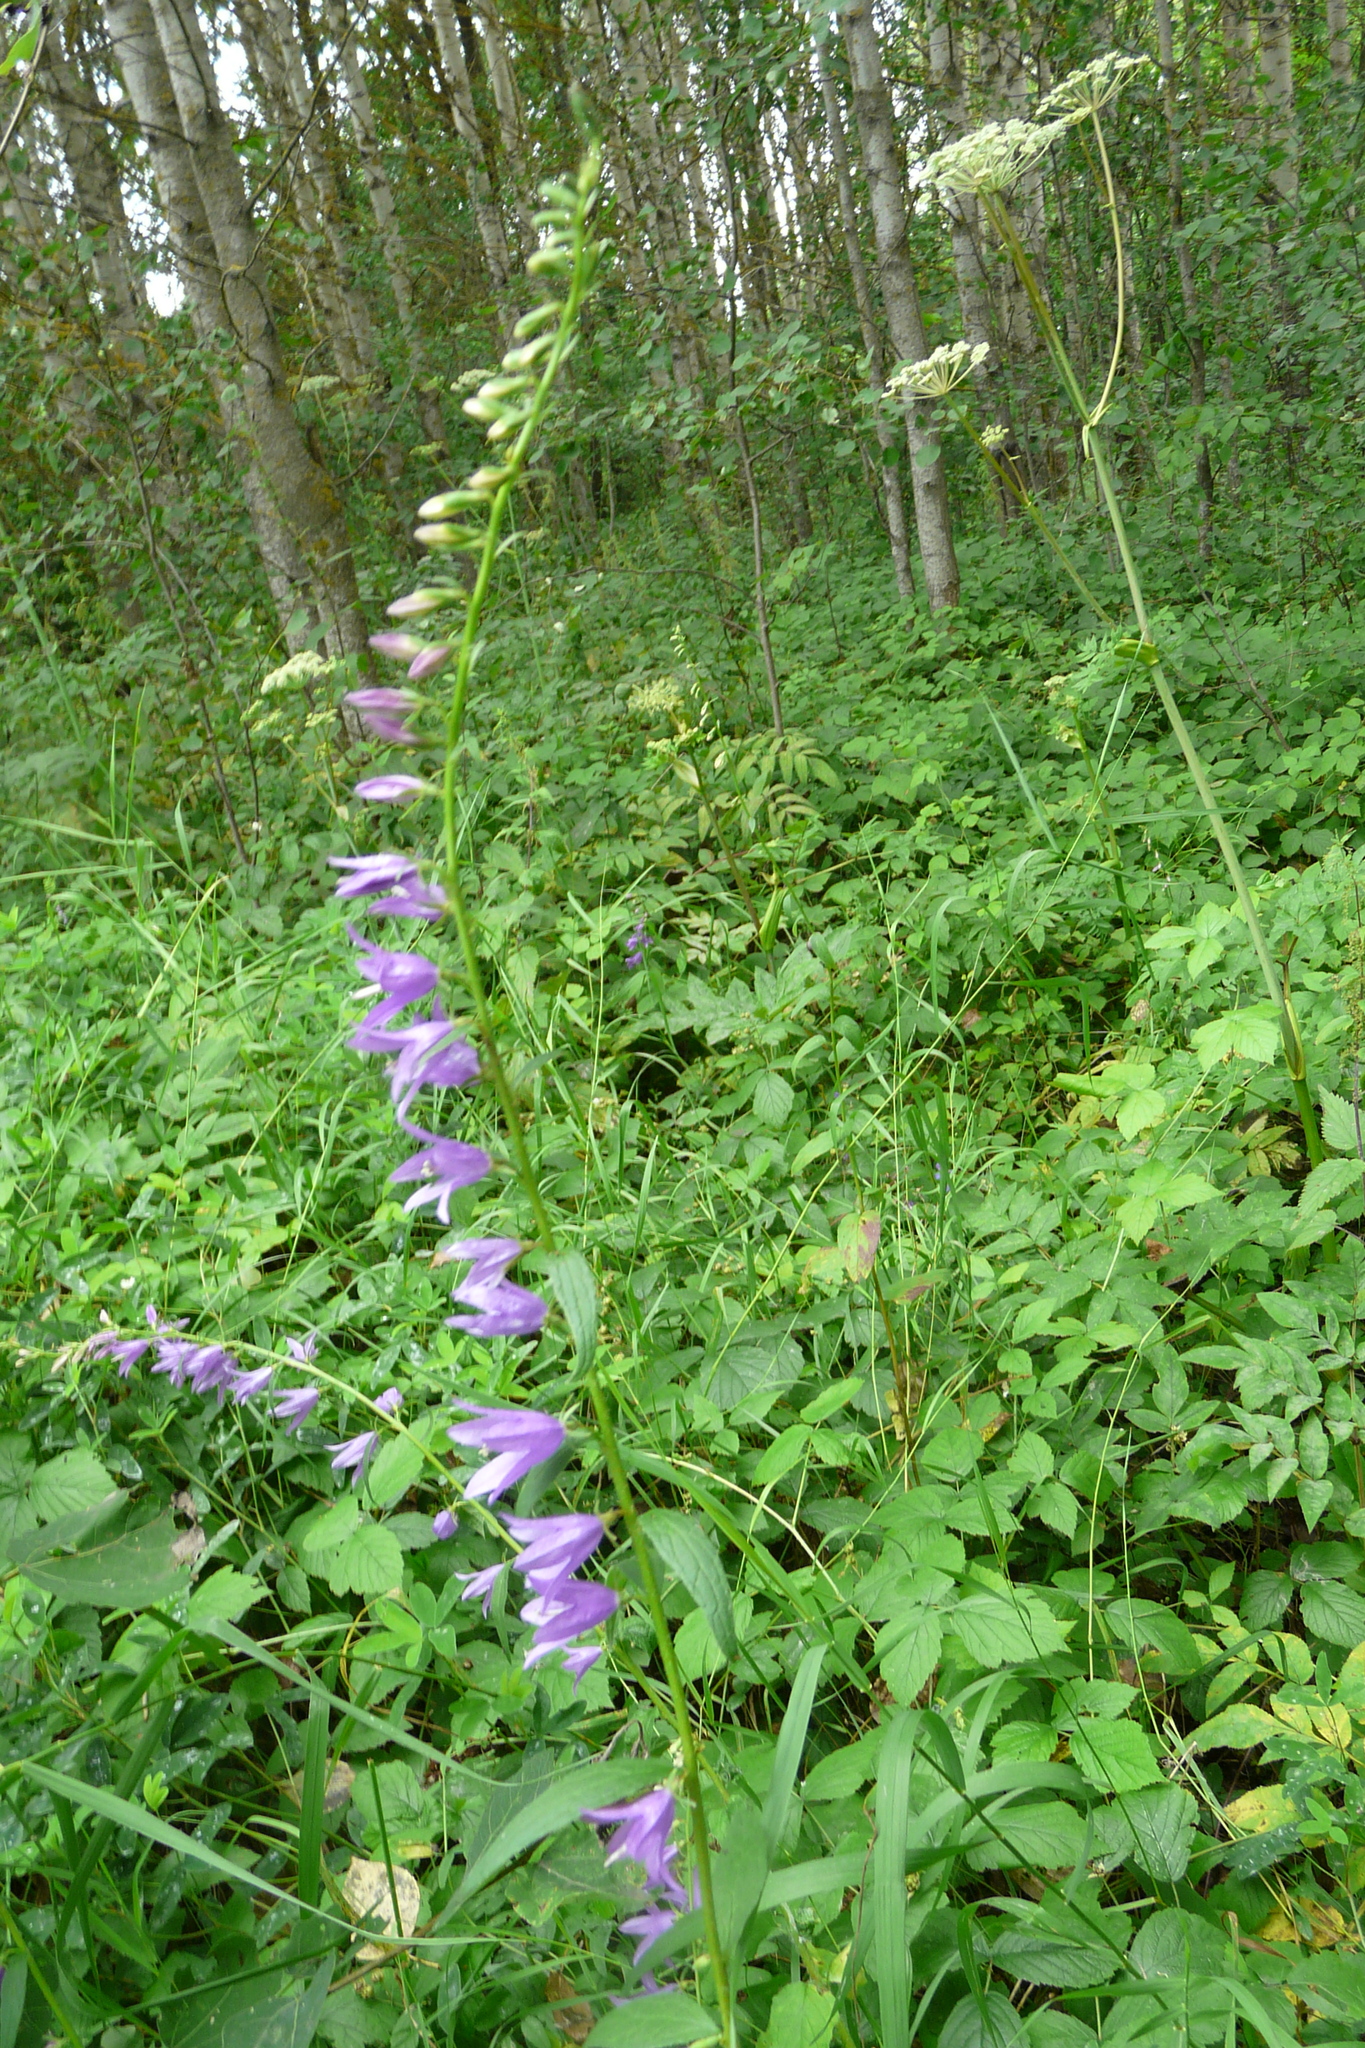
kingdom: Plantae
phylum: Tracheophyta
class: Magnoliopsida
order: Asterales
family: Campanulaceae
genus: Campanula
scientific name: Campanula rapunculoides
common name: Creeping bellflower
